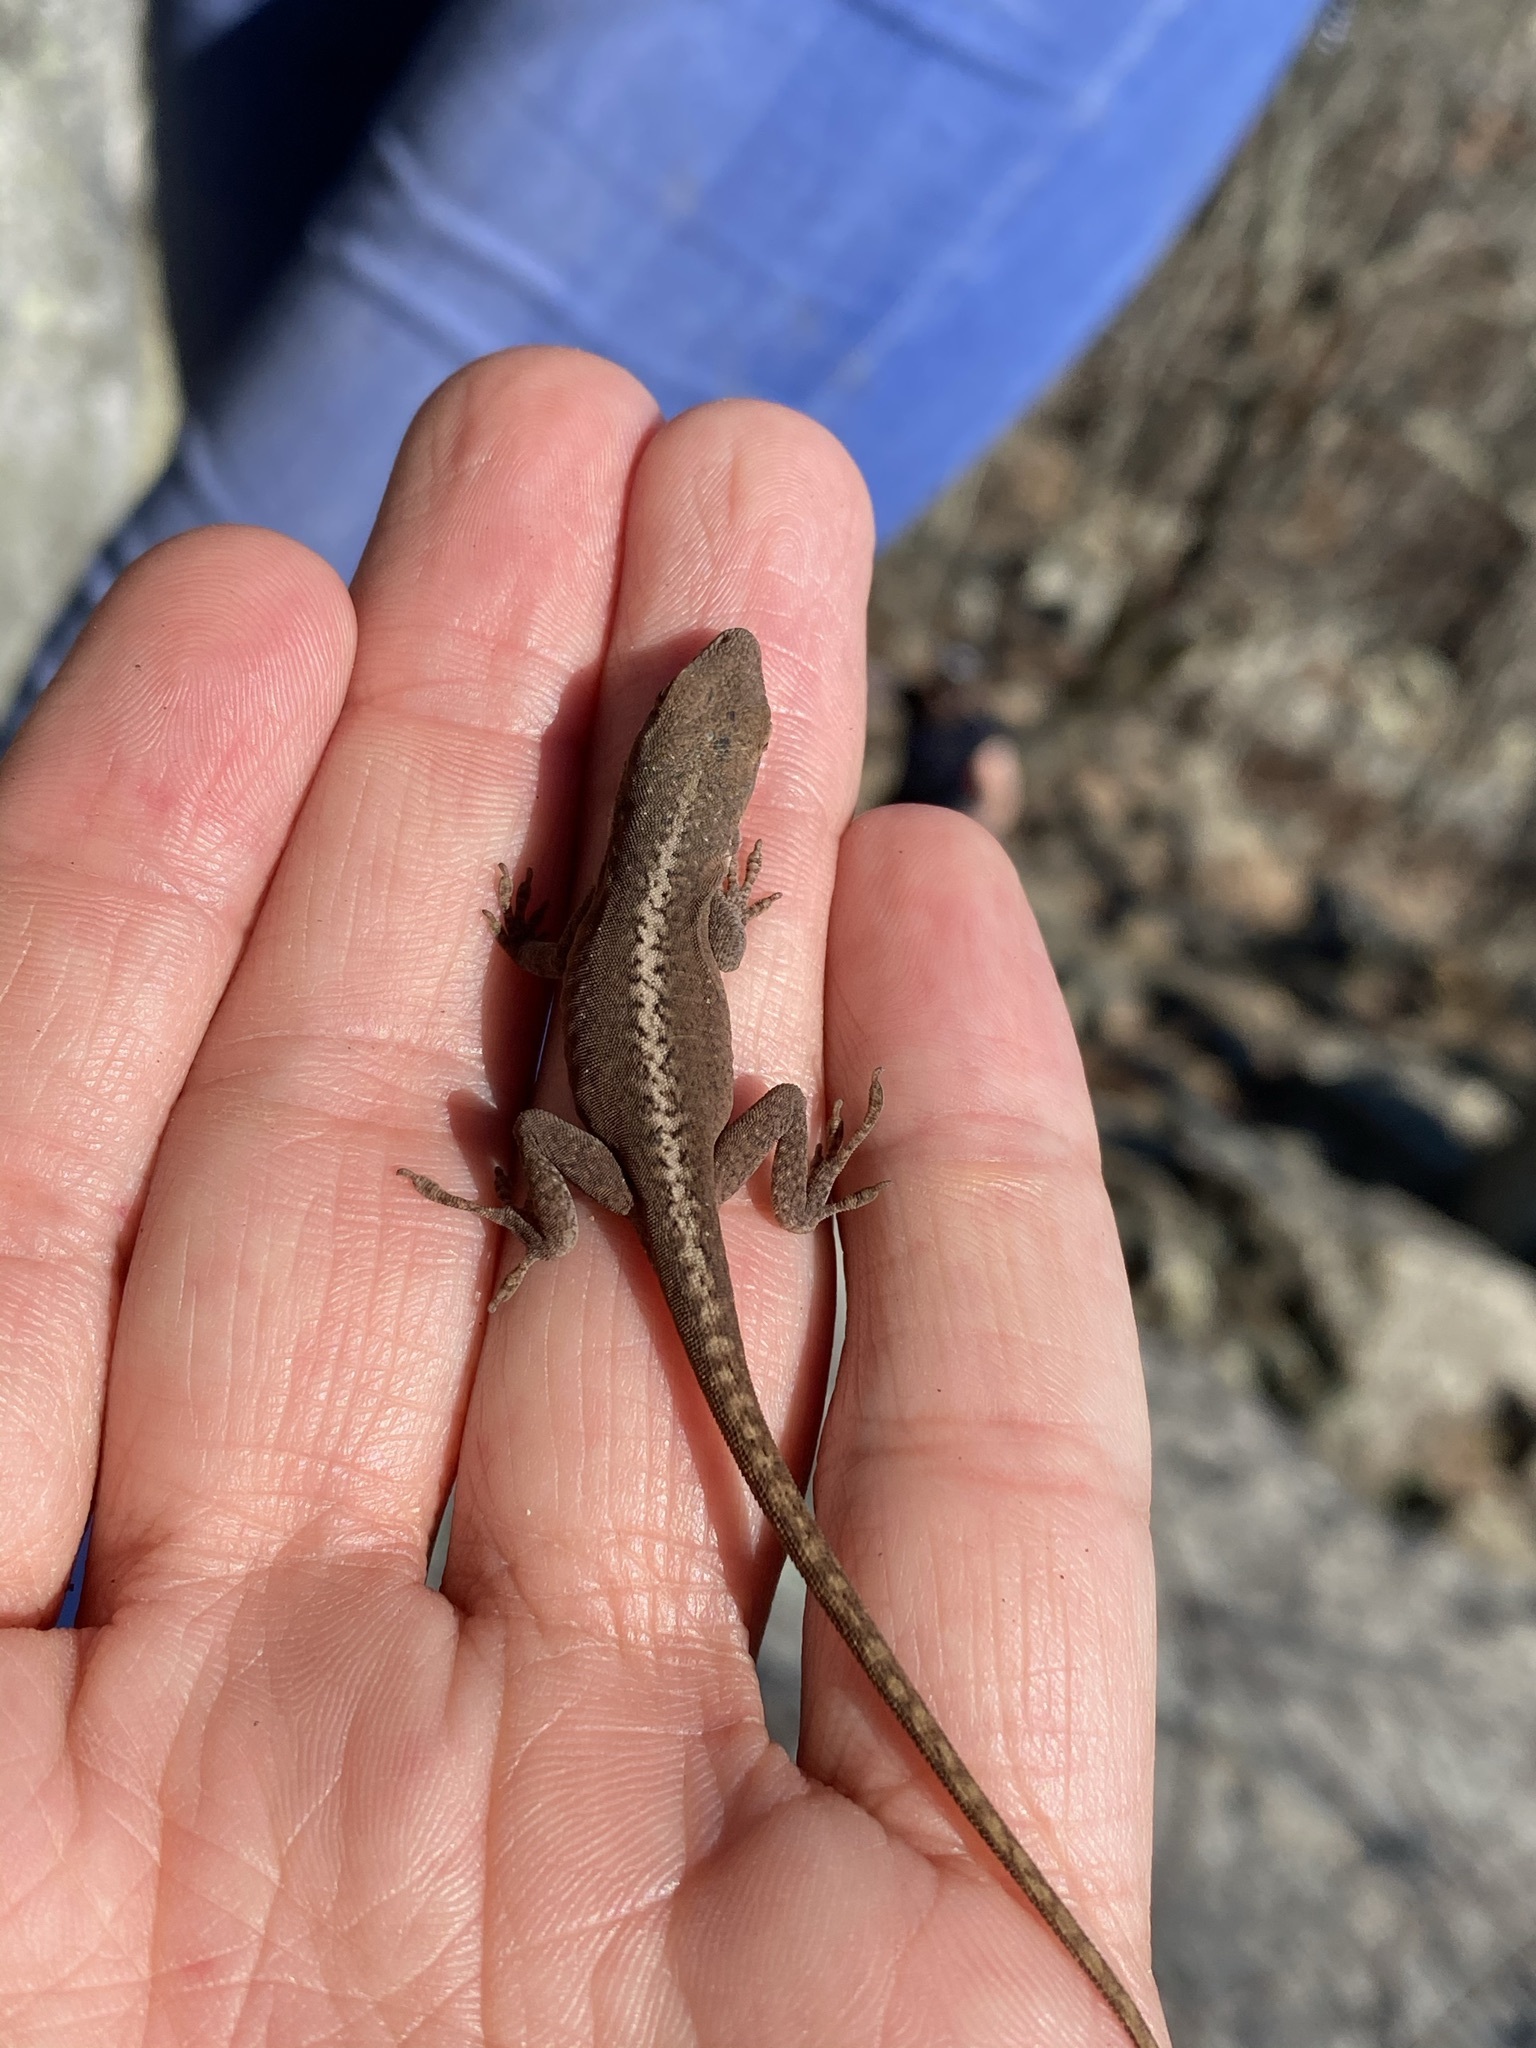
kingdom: Animalia
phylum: Chordata
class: Squamata
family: Dactyloidae
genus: Anolis
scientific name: Anolis carolinensis
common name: Green anole
